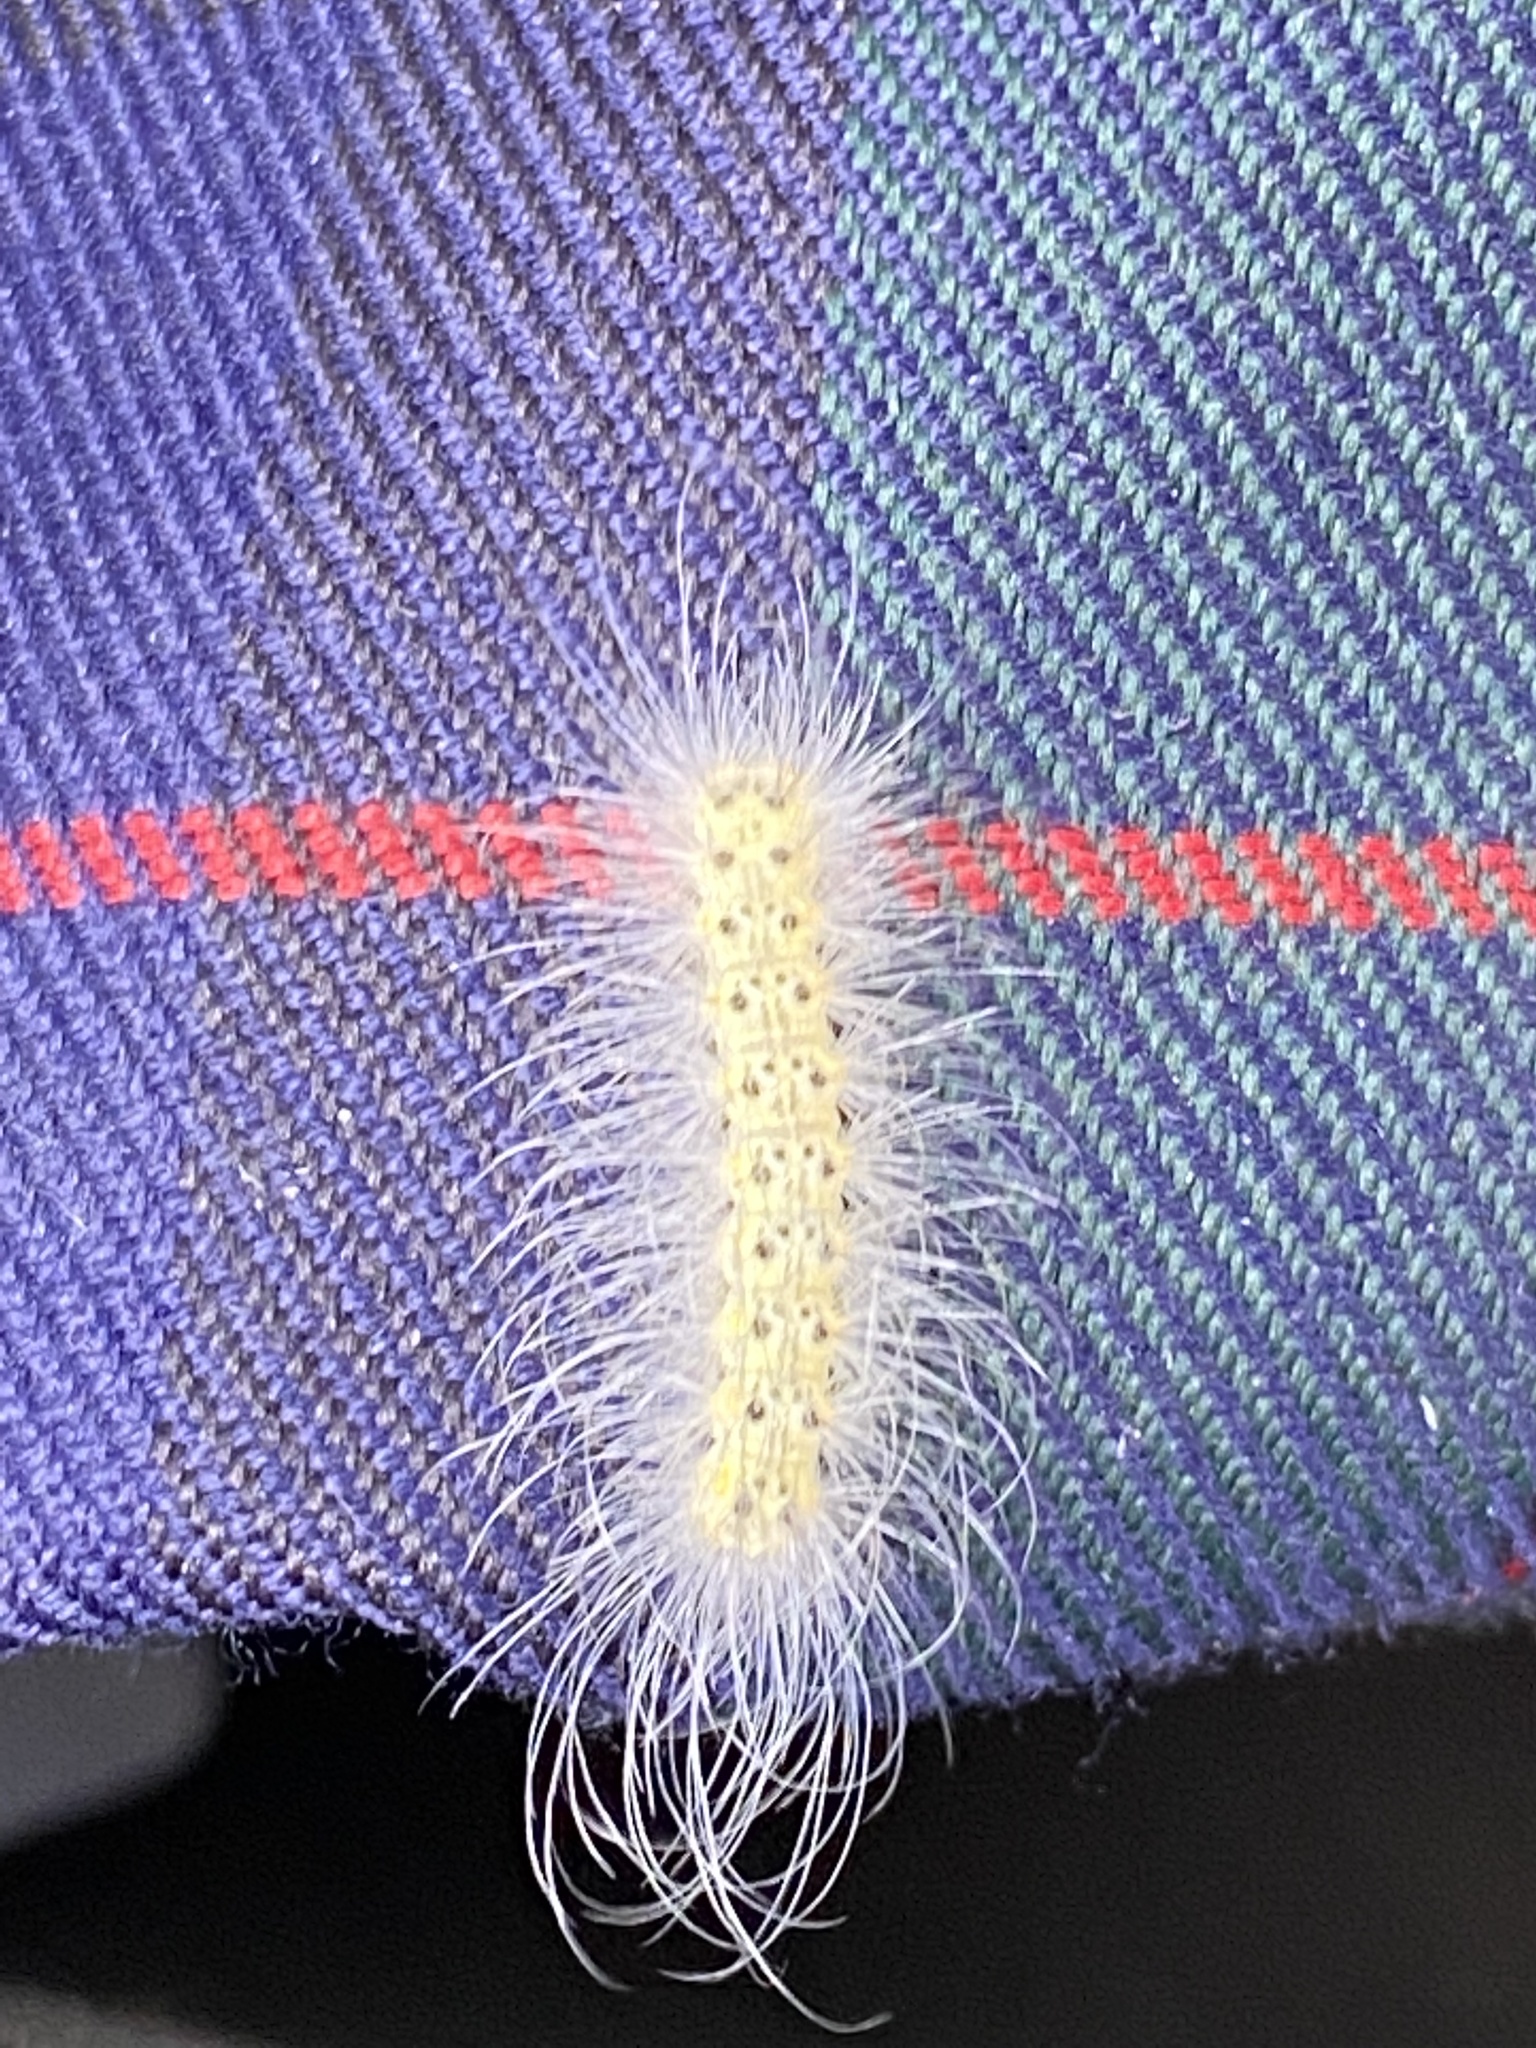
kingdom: Animalia
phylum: Arthropoda
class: Insecta
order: Lepidoptera
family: Erebidae
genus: Hyphantria
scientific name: Hyphantria cunea
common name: American white moth
